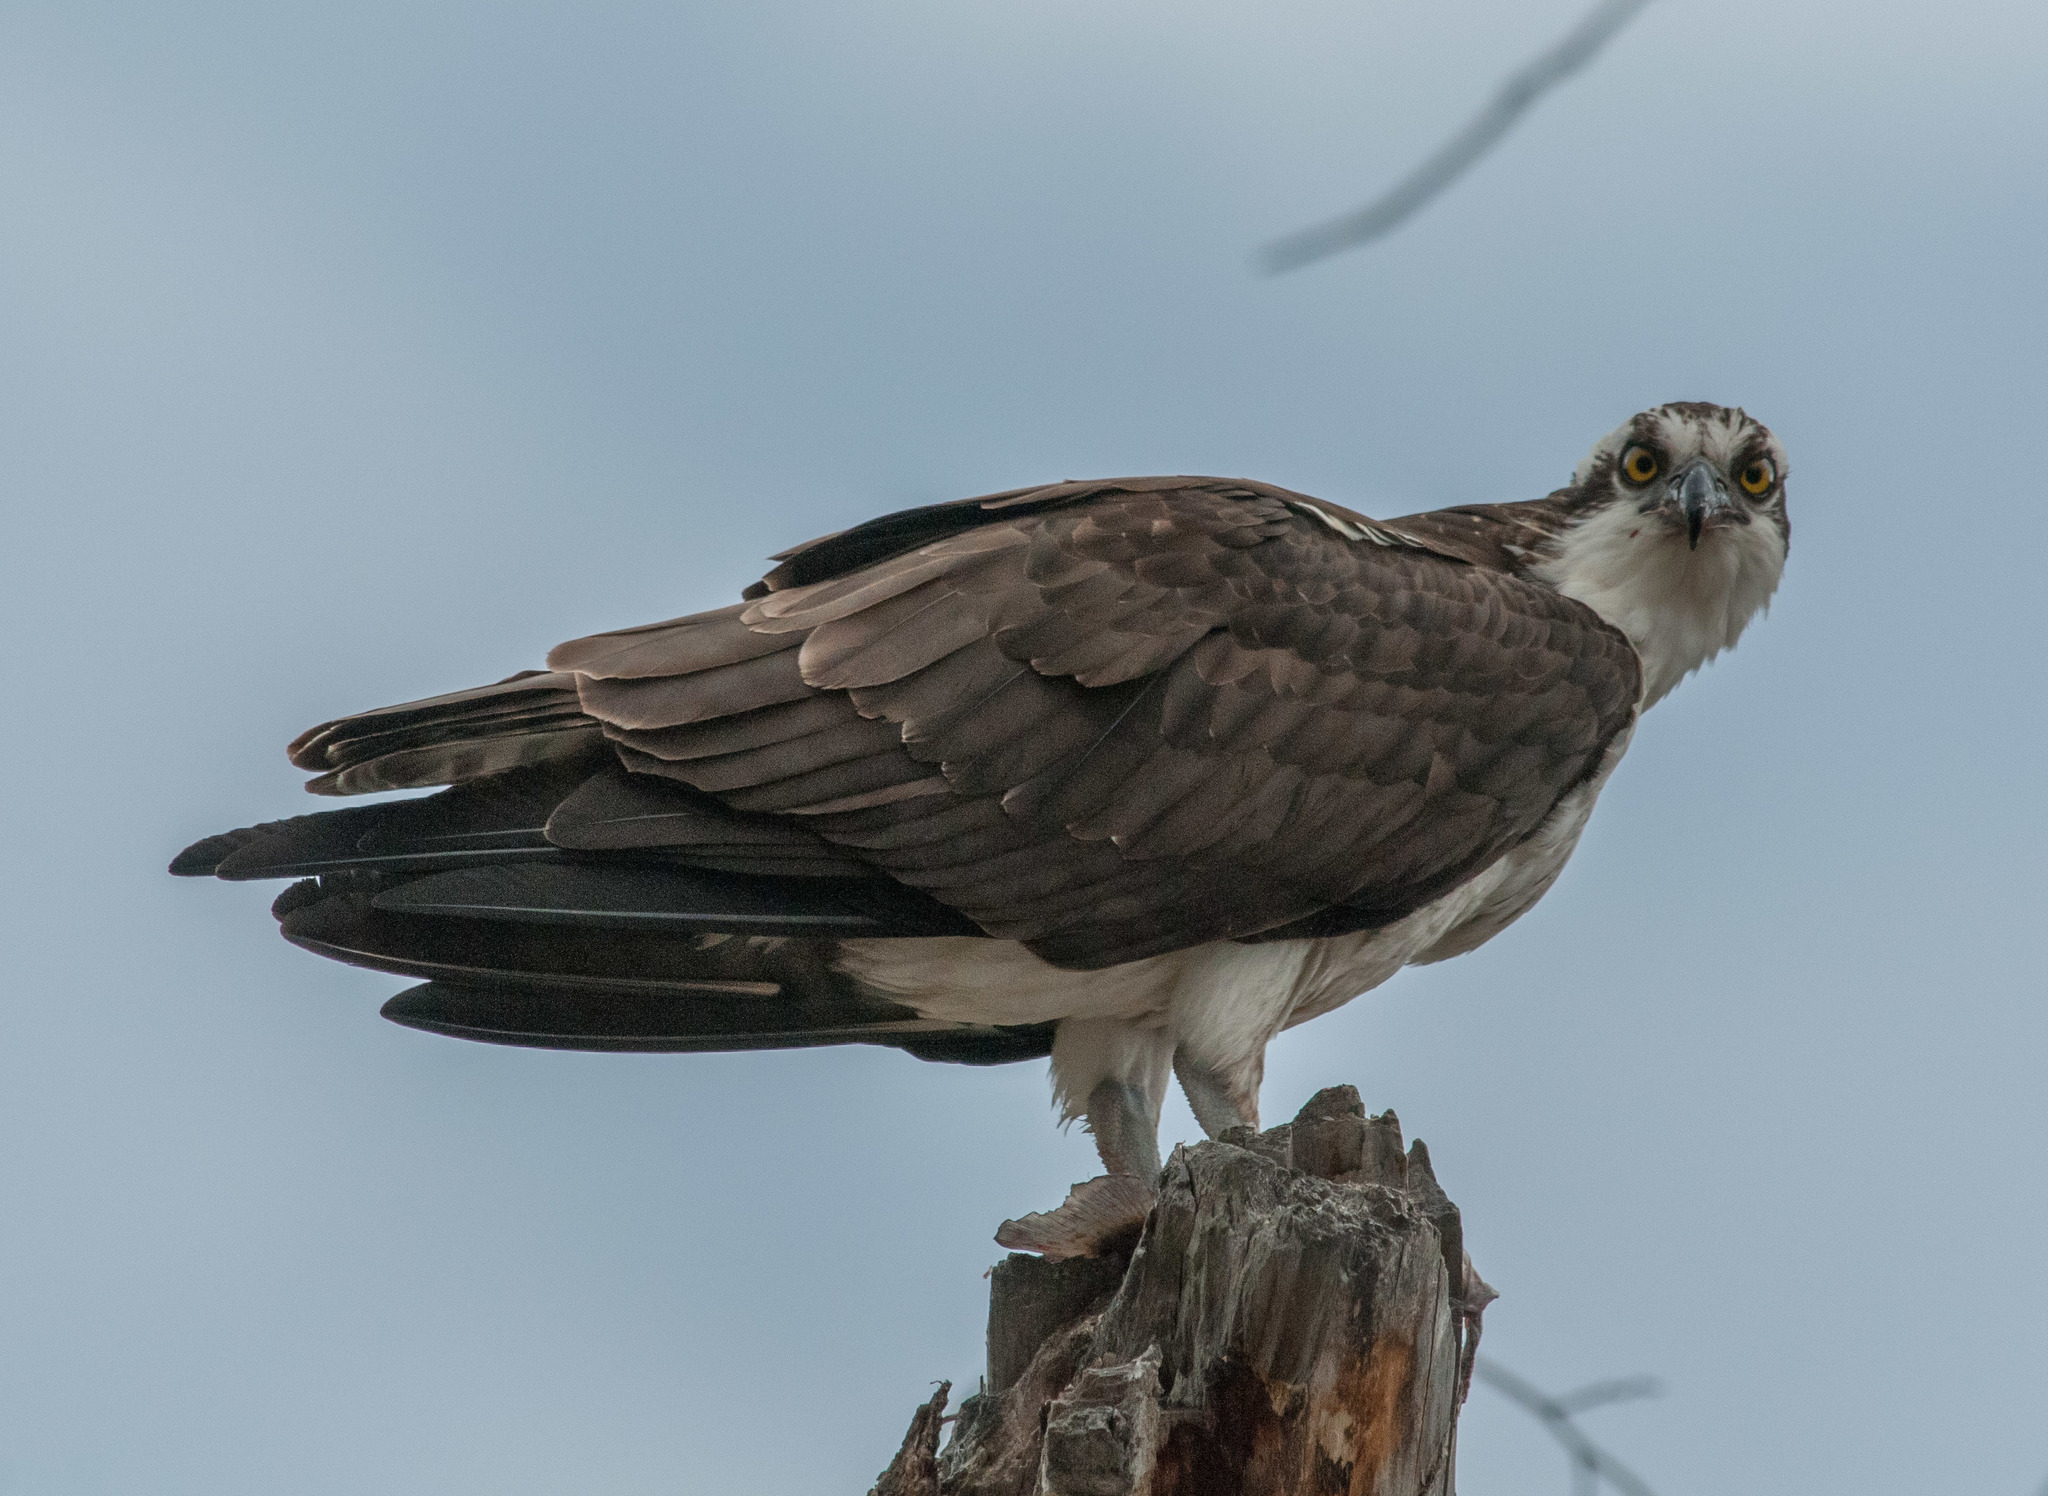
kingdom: Animalia
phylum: Chordata
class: Aves
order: Accipitriformes
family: Pandionidae
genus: Pandion
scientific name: Pandion haliaetus
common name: Osprey
